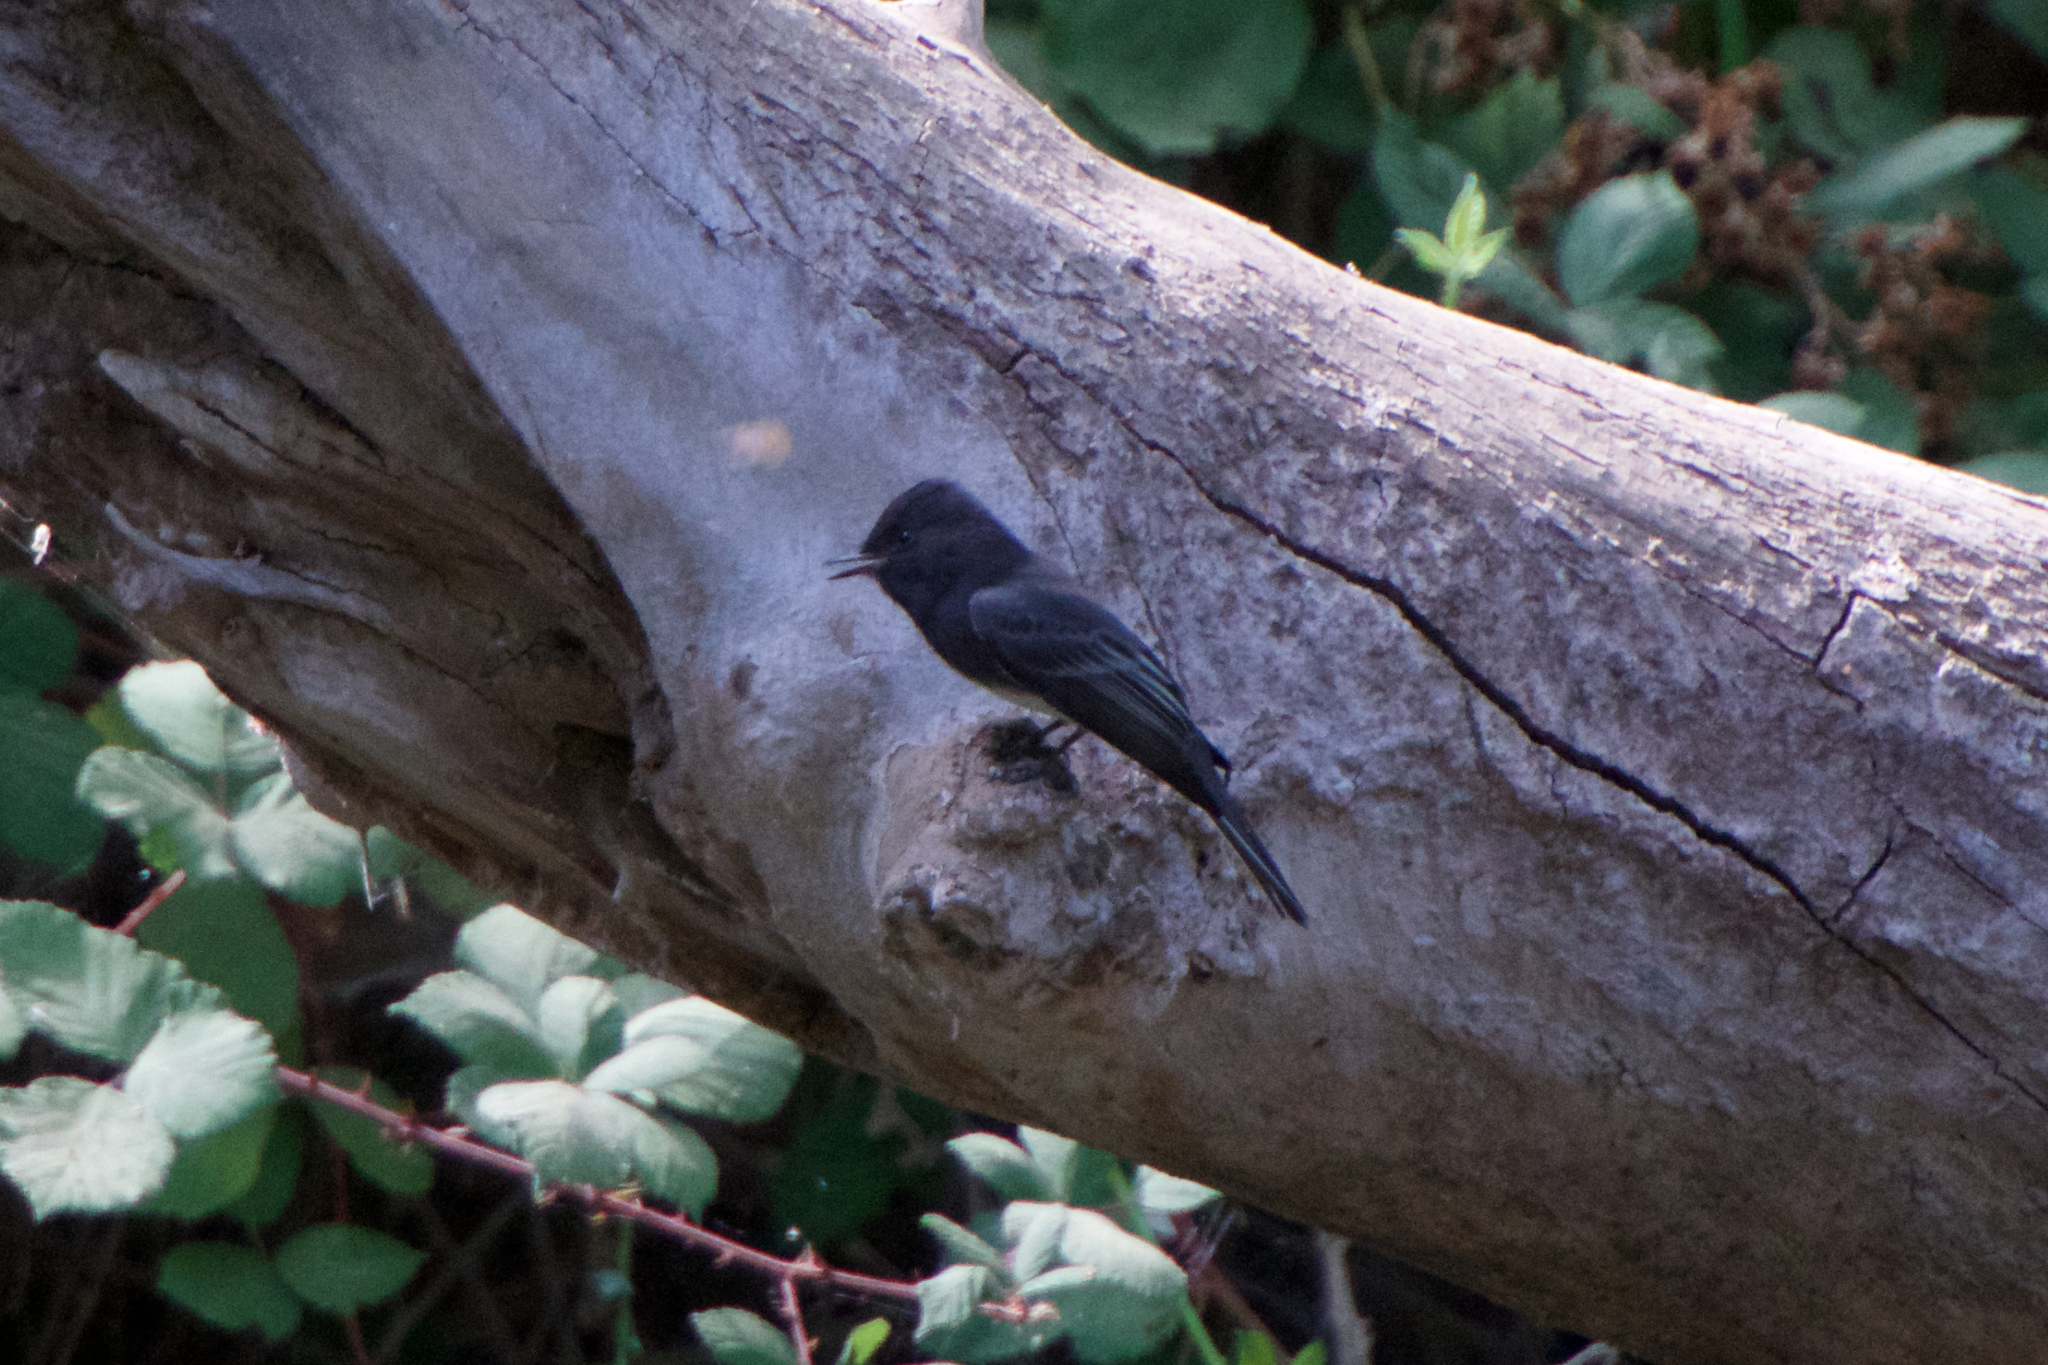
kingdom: Animalia
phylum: Chordata
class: Aves
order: Passeriformes
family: Tyrannidae
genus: Sayornis
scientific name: Sayornis nigricans
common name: Black phoebe
